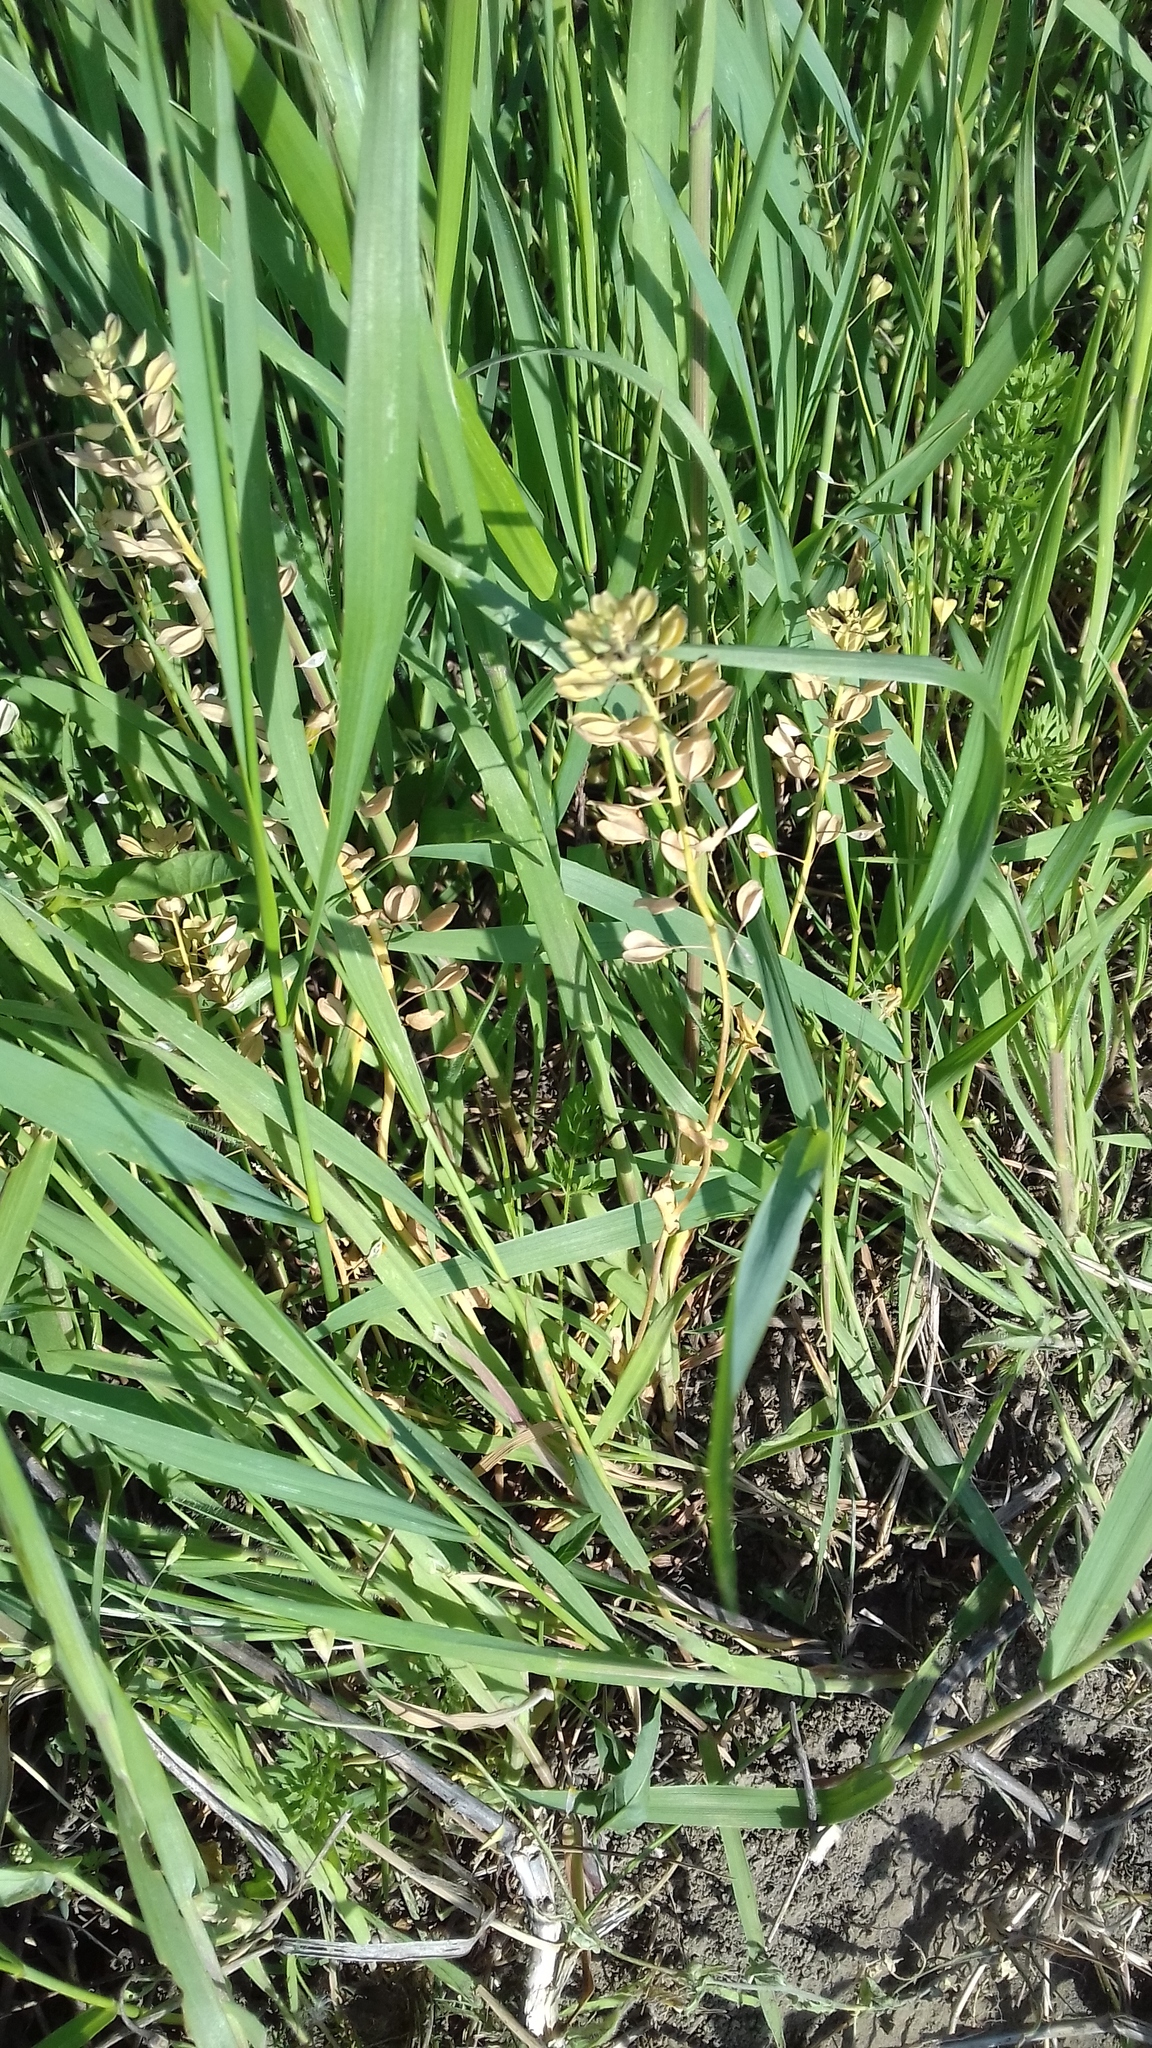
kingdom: Plantae
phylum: Tracheophyta
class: Magnoliopsida
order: Brassicales
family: Brassicaceae
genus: Thlaspi
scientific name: Thlaspi arvense
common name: Field pennycress
